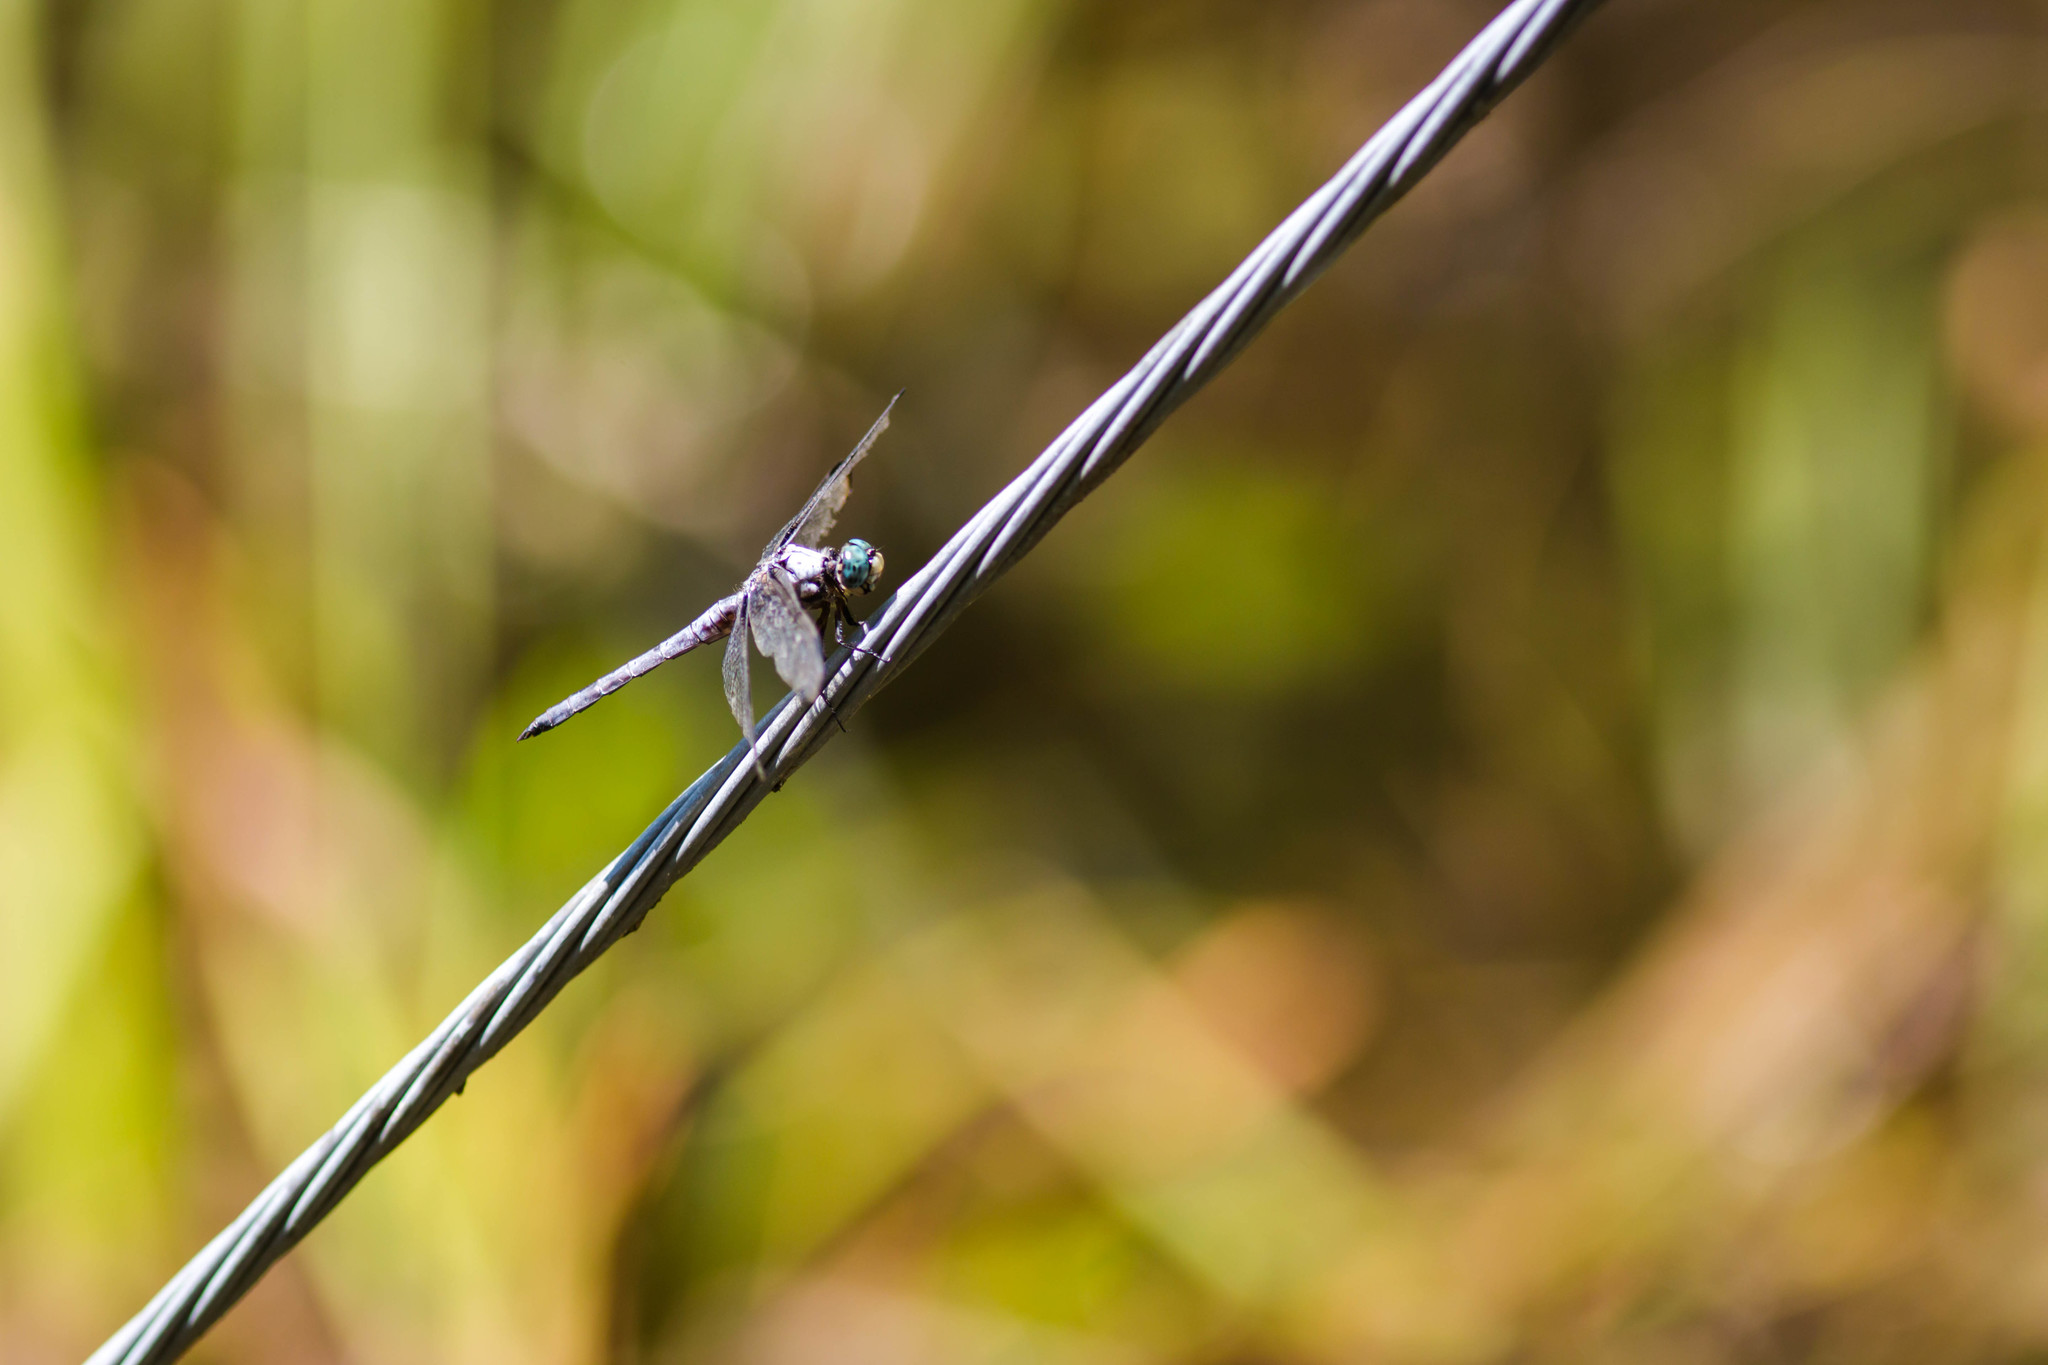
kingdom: Animalia
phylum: Arthropoda
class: Insecta
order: Odonata
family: Libellulidae
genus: Libellula
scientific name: Libellula vibrans
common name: Great blue skimmer
